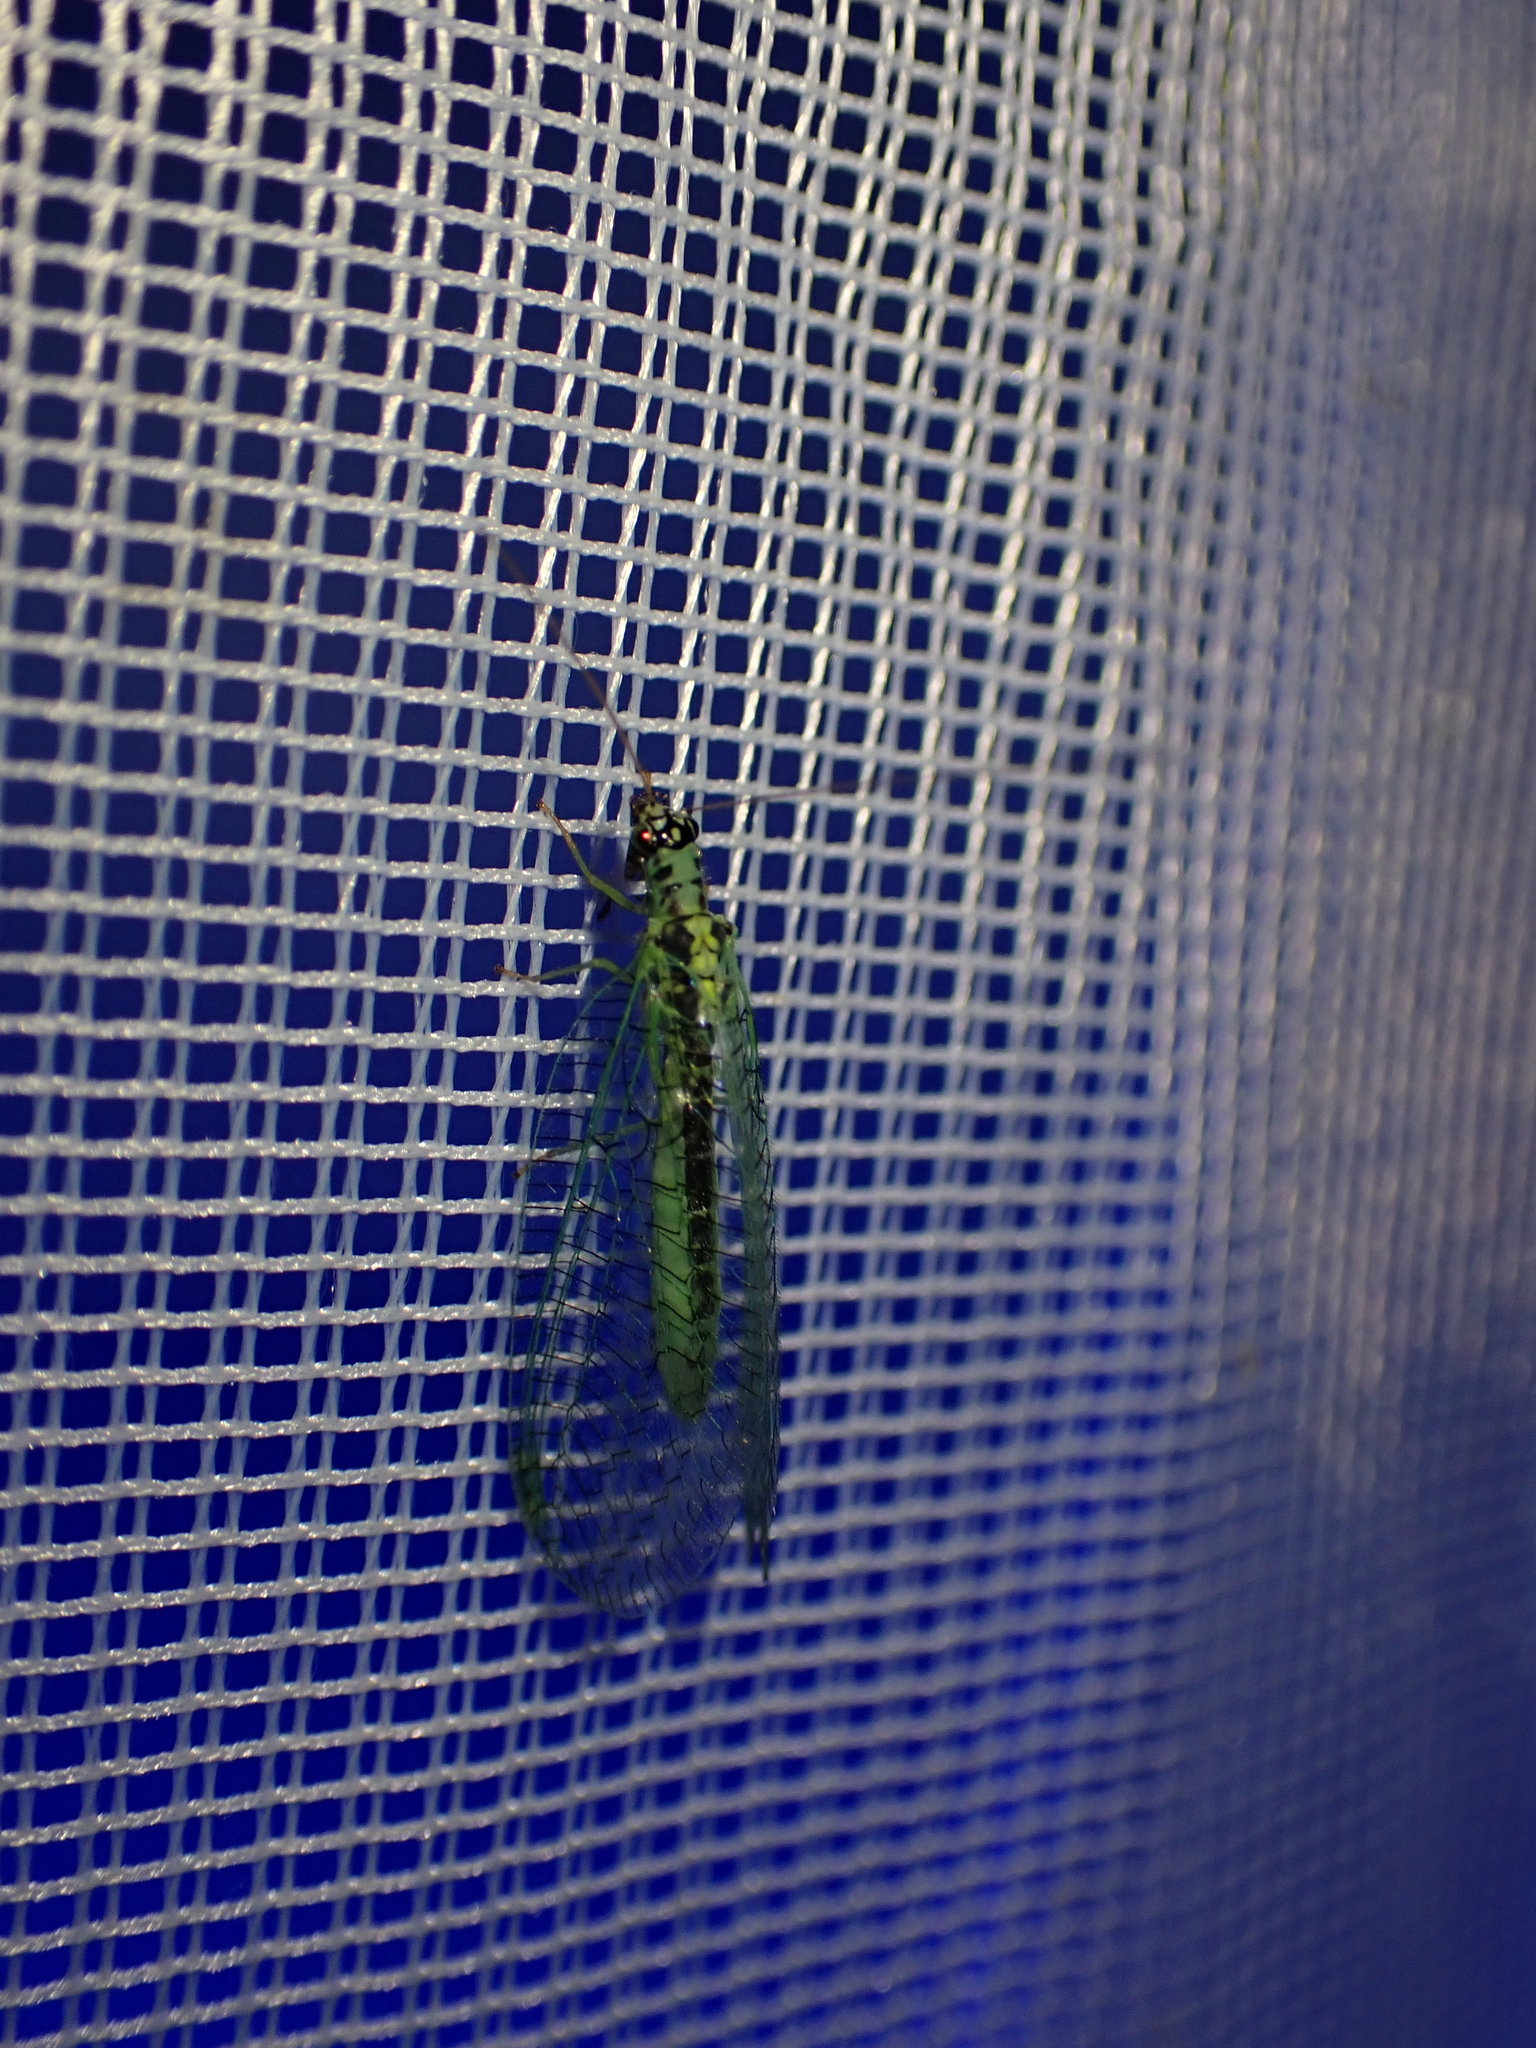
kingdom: Animalia
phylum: Arthropoda
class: Insecta
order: Neuroptera
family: Chrysopidae
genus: Chrysopa
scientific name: Chrysopa perla
